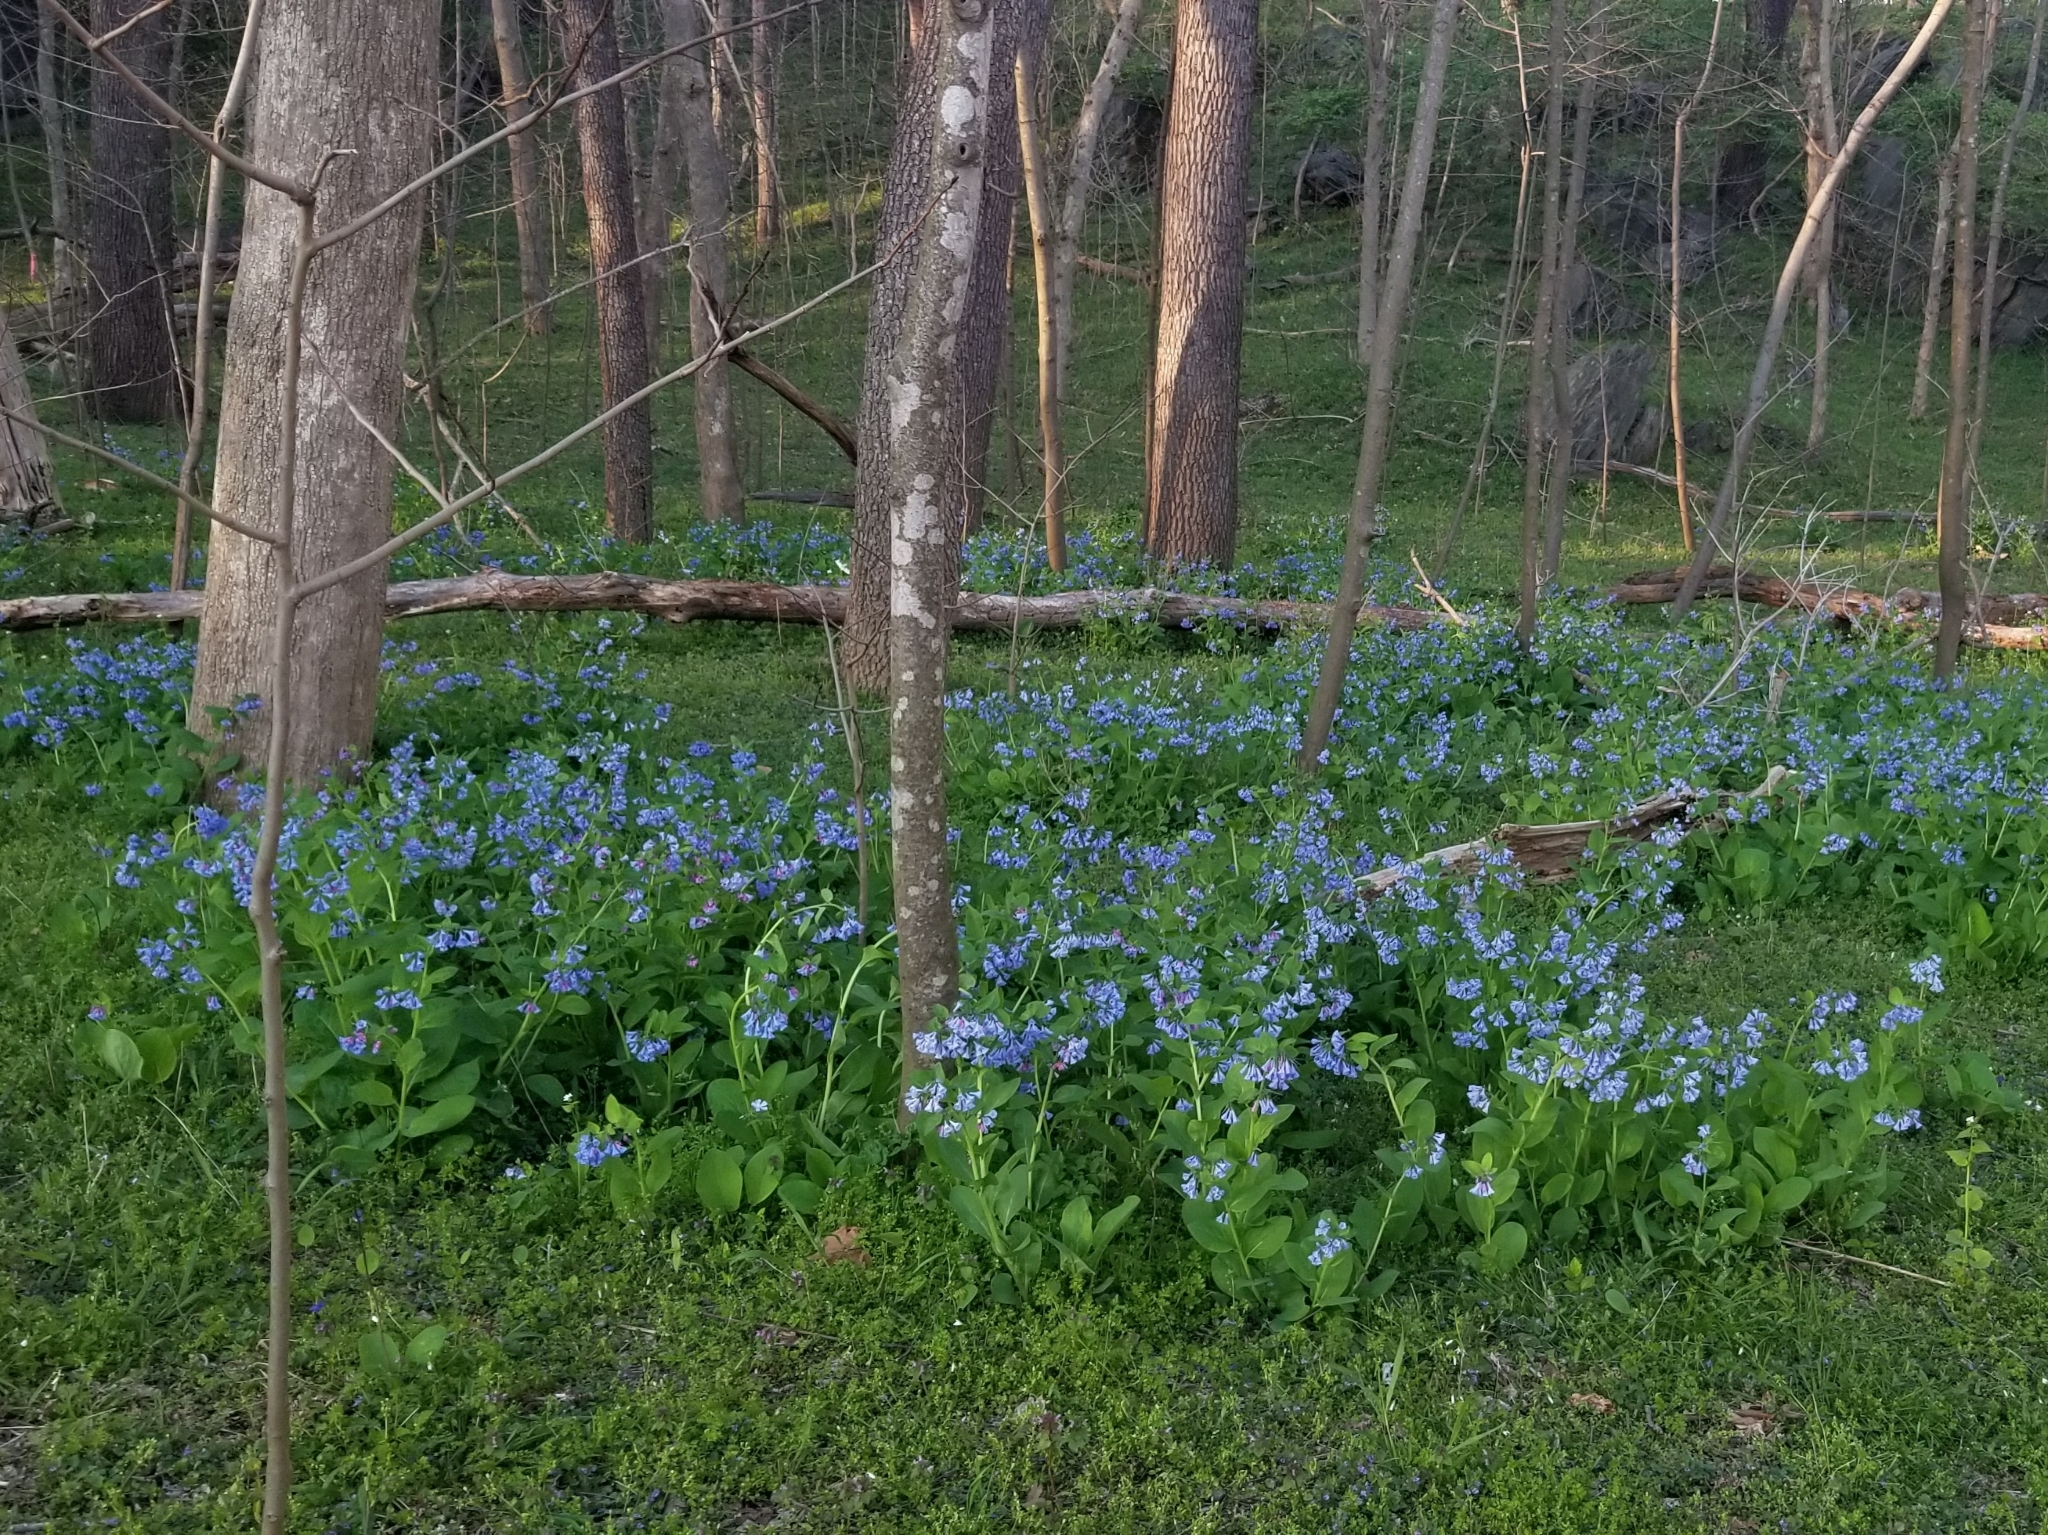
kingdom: Plantae
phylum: Tracheophyta
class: Magnoliopsida
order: Boraginales
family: Boraginaceae
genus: Mertensia
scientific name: Mertensia virginica
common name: Virginia bluebells
